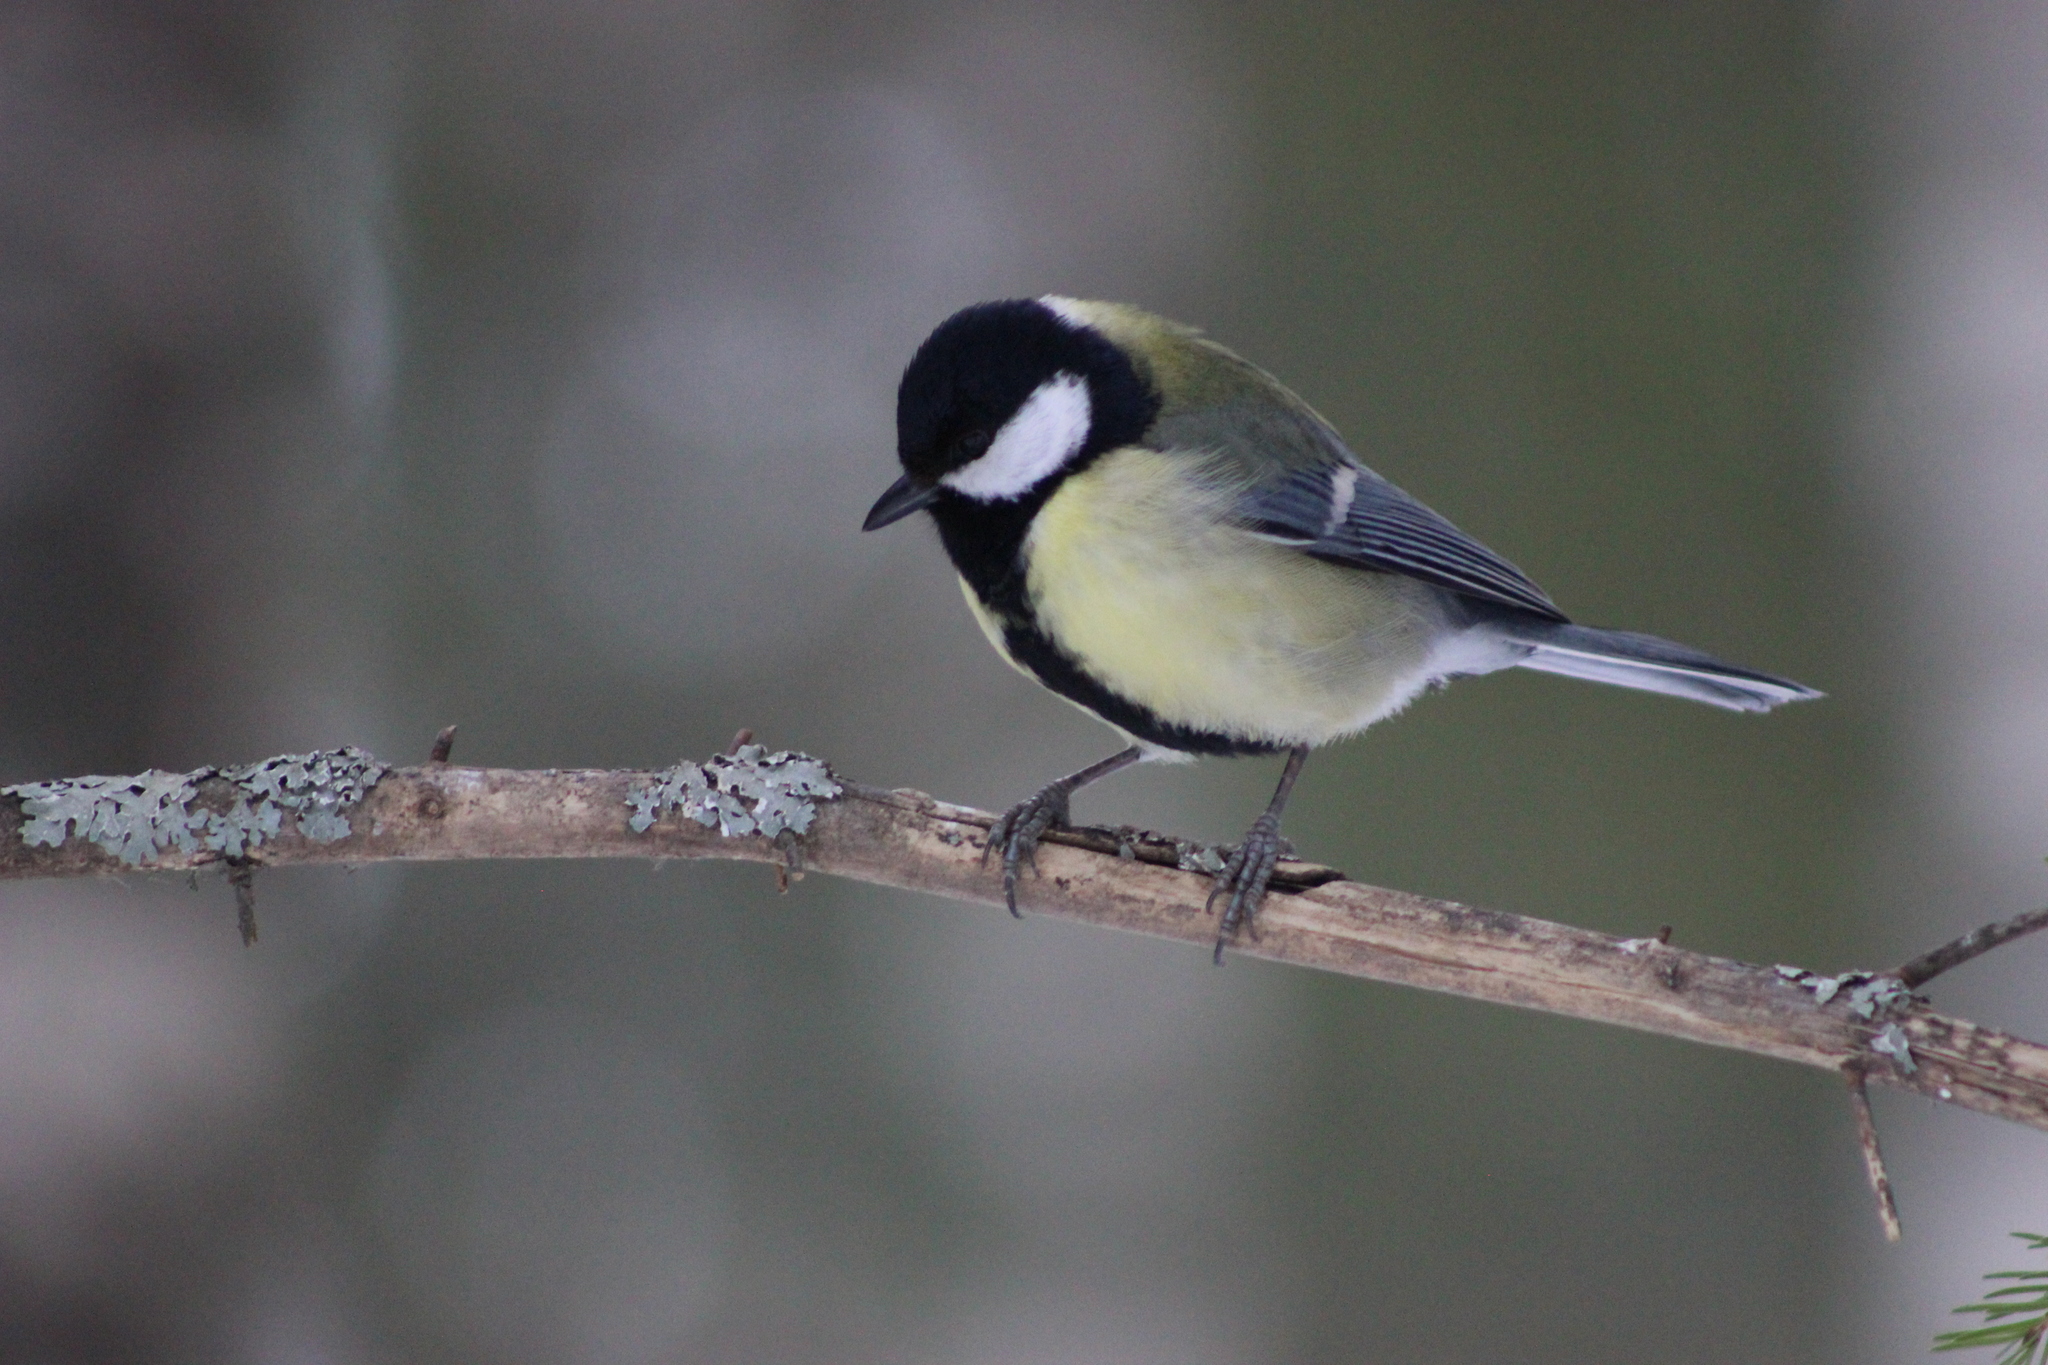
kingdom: Animalia
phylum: Chordata
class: Aves
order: Passeriformes
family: Paridae
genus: Parus
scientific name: Parus major
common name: Great tit
